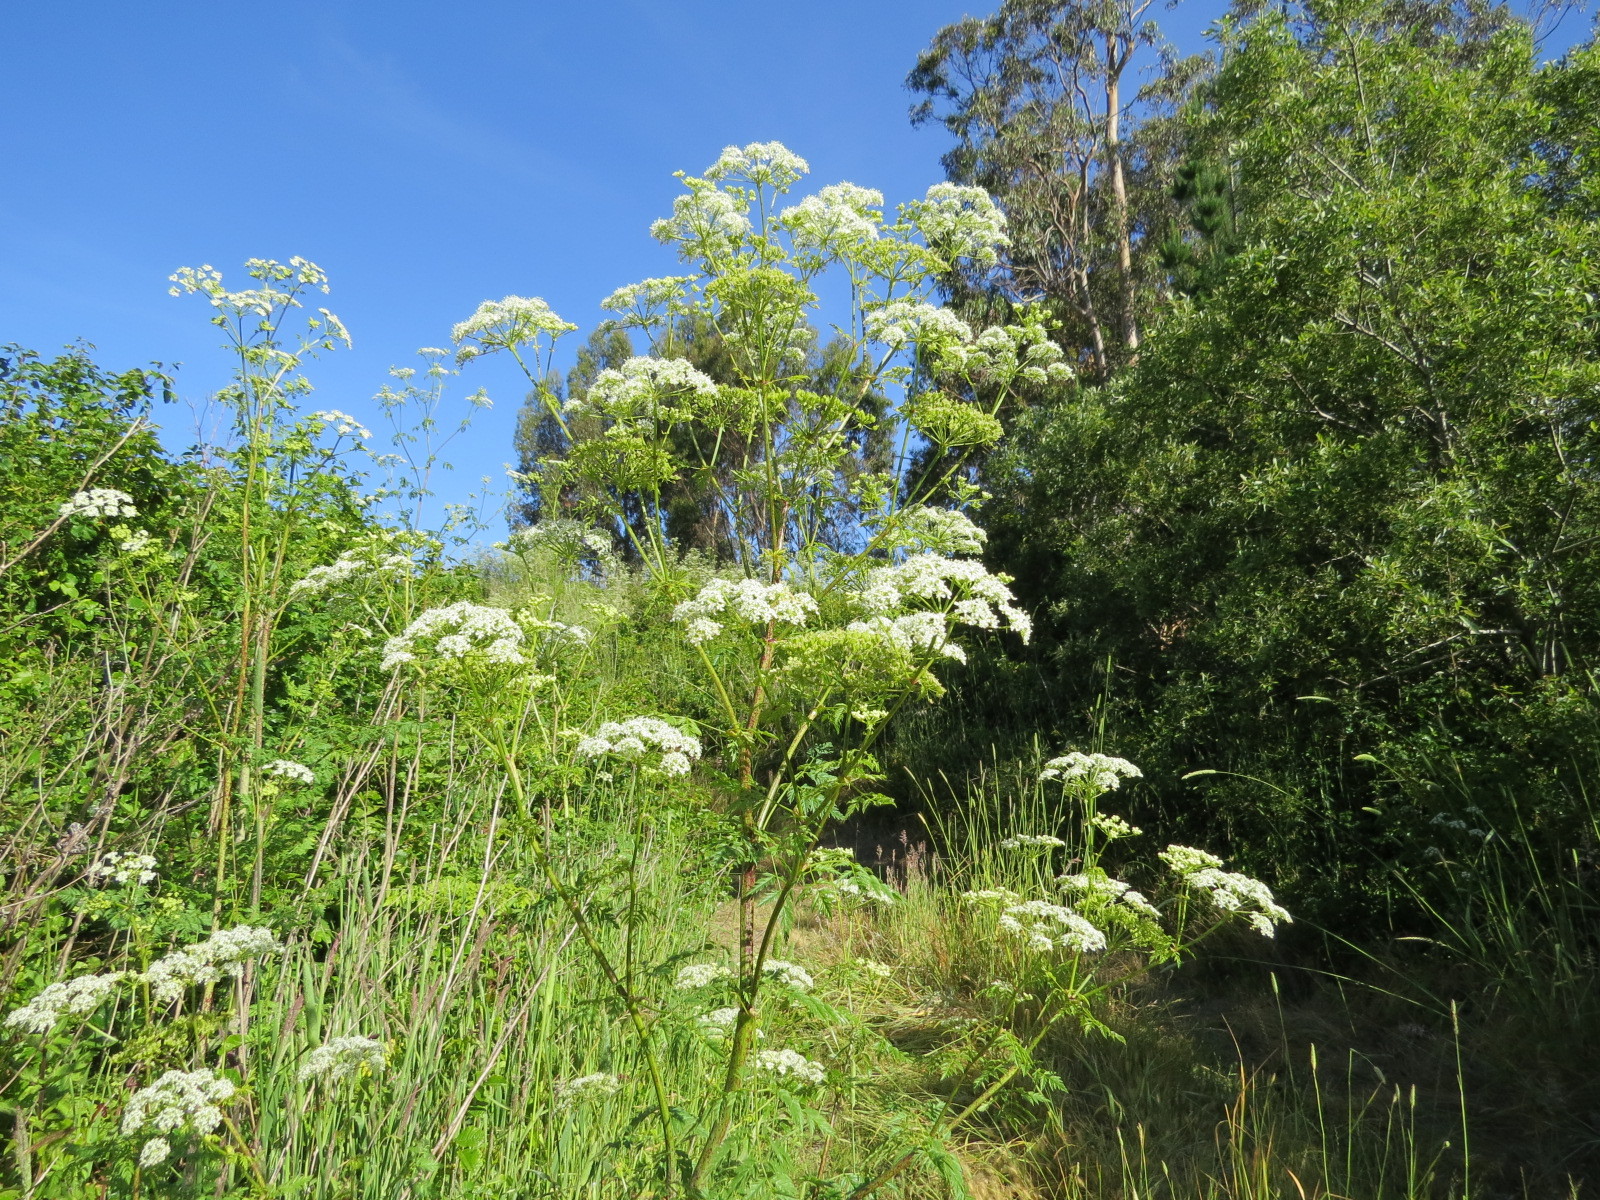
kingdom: Plantae
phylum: Tracheophyta
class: Magnoliopsida
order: Apiales
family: Apiaceae
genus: Conium
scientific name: Conium maculatum
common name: Hemlock
